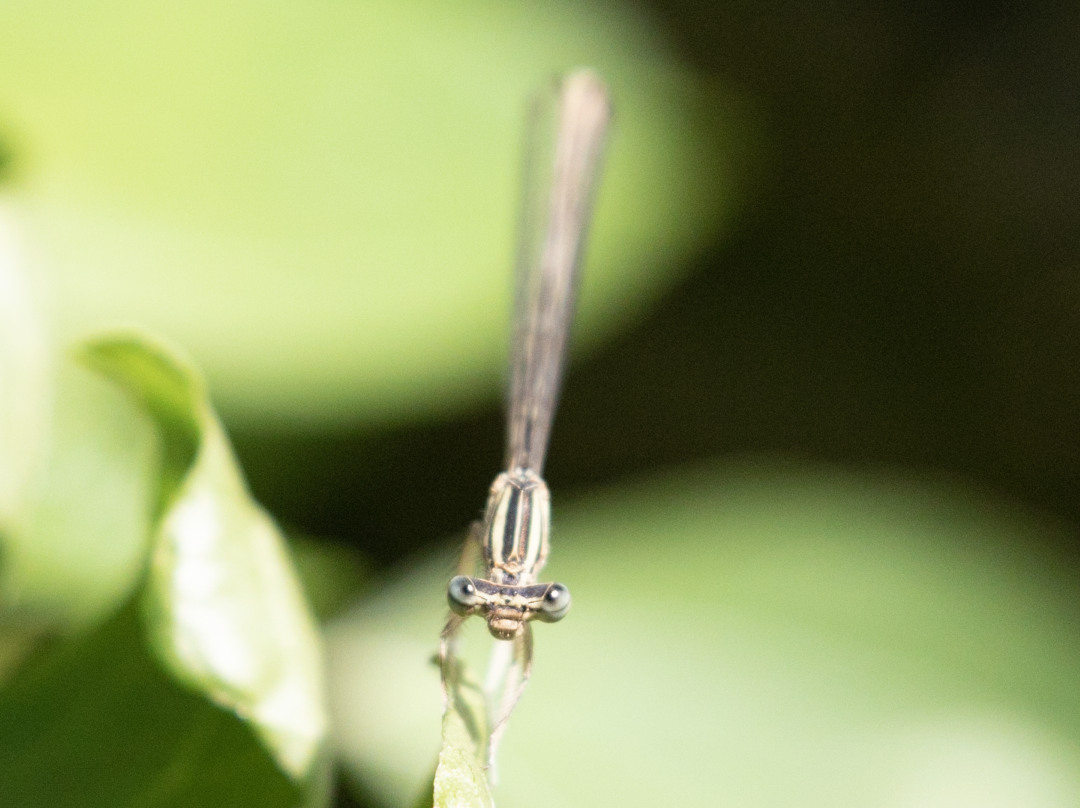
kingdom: Animalia
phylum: Arthropoda
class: Insecta
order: Odonata
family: Platycnemididae
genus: Platycnemis
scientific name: Platycnemis pennipes
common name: White-legged damselfly
